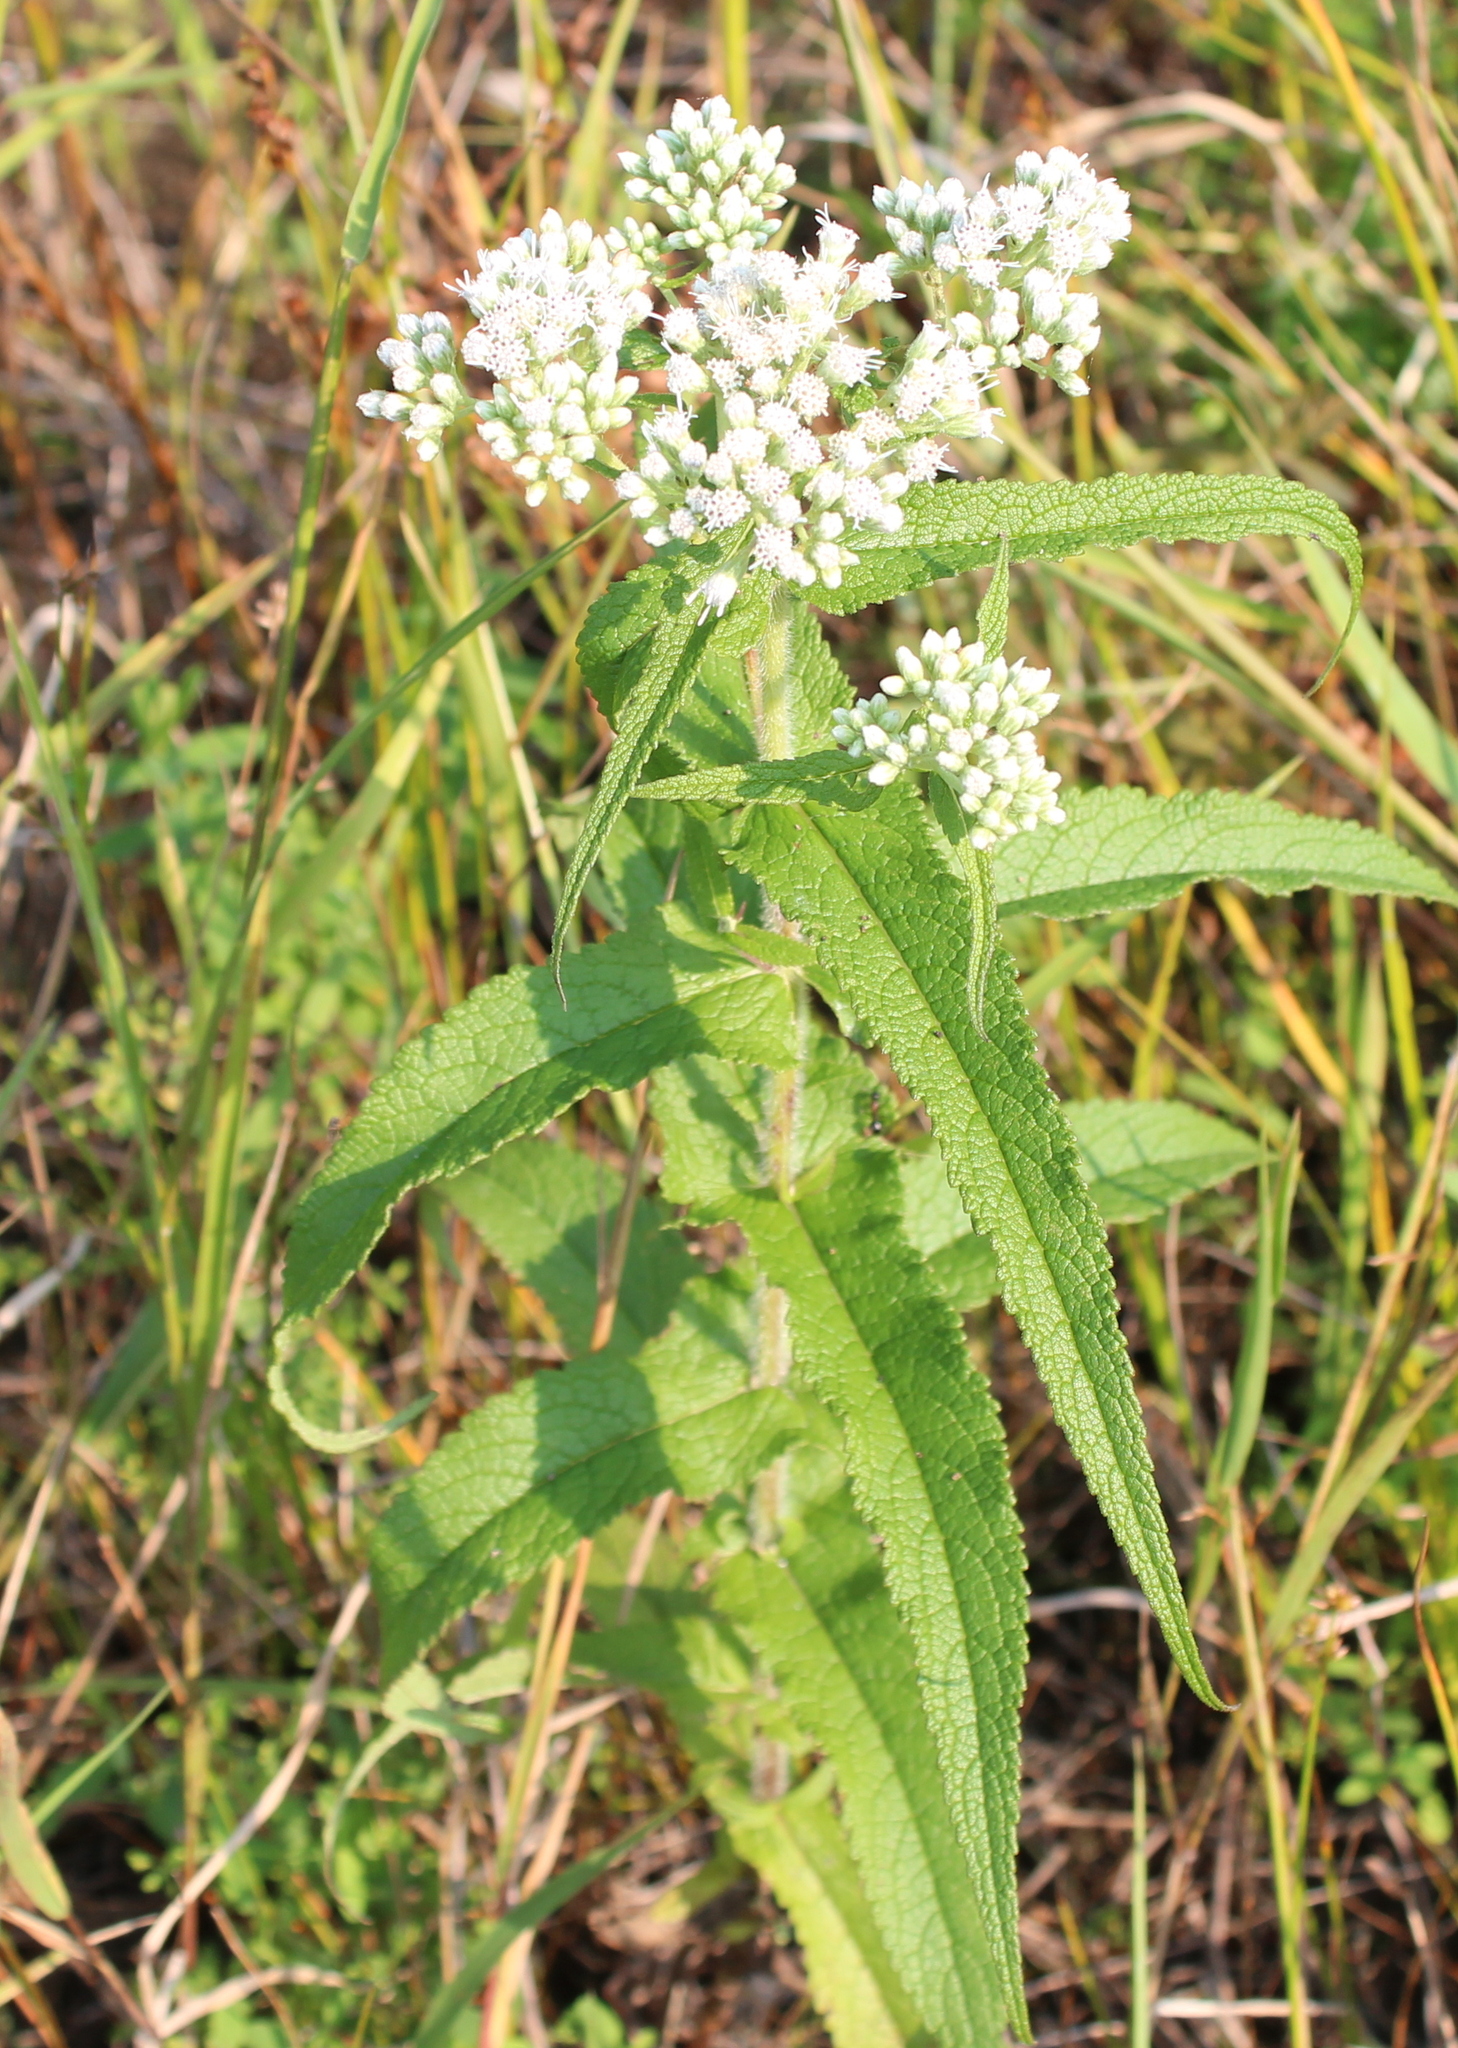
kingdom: Plantae
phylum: Tracheophyta
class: Magnoliopsida
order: Asterales
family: Asteraceae
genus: Eupatorium
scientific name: Eupatorium perfoliatum
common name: Boneset
